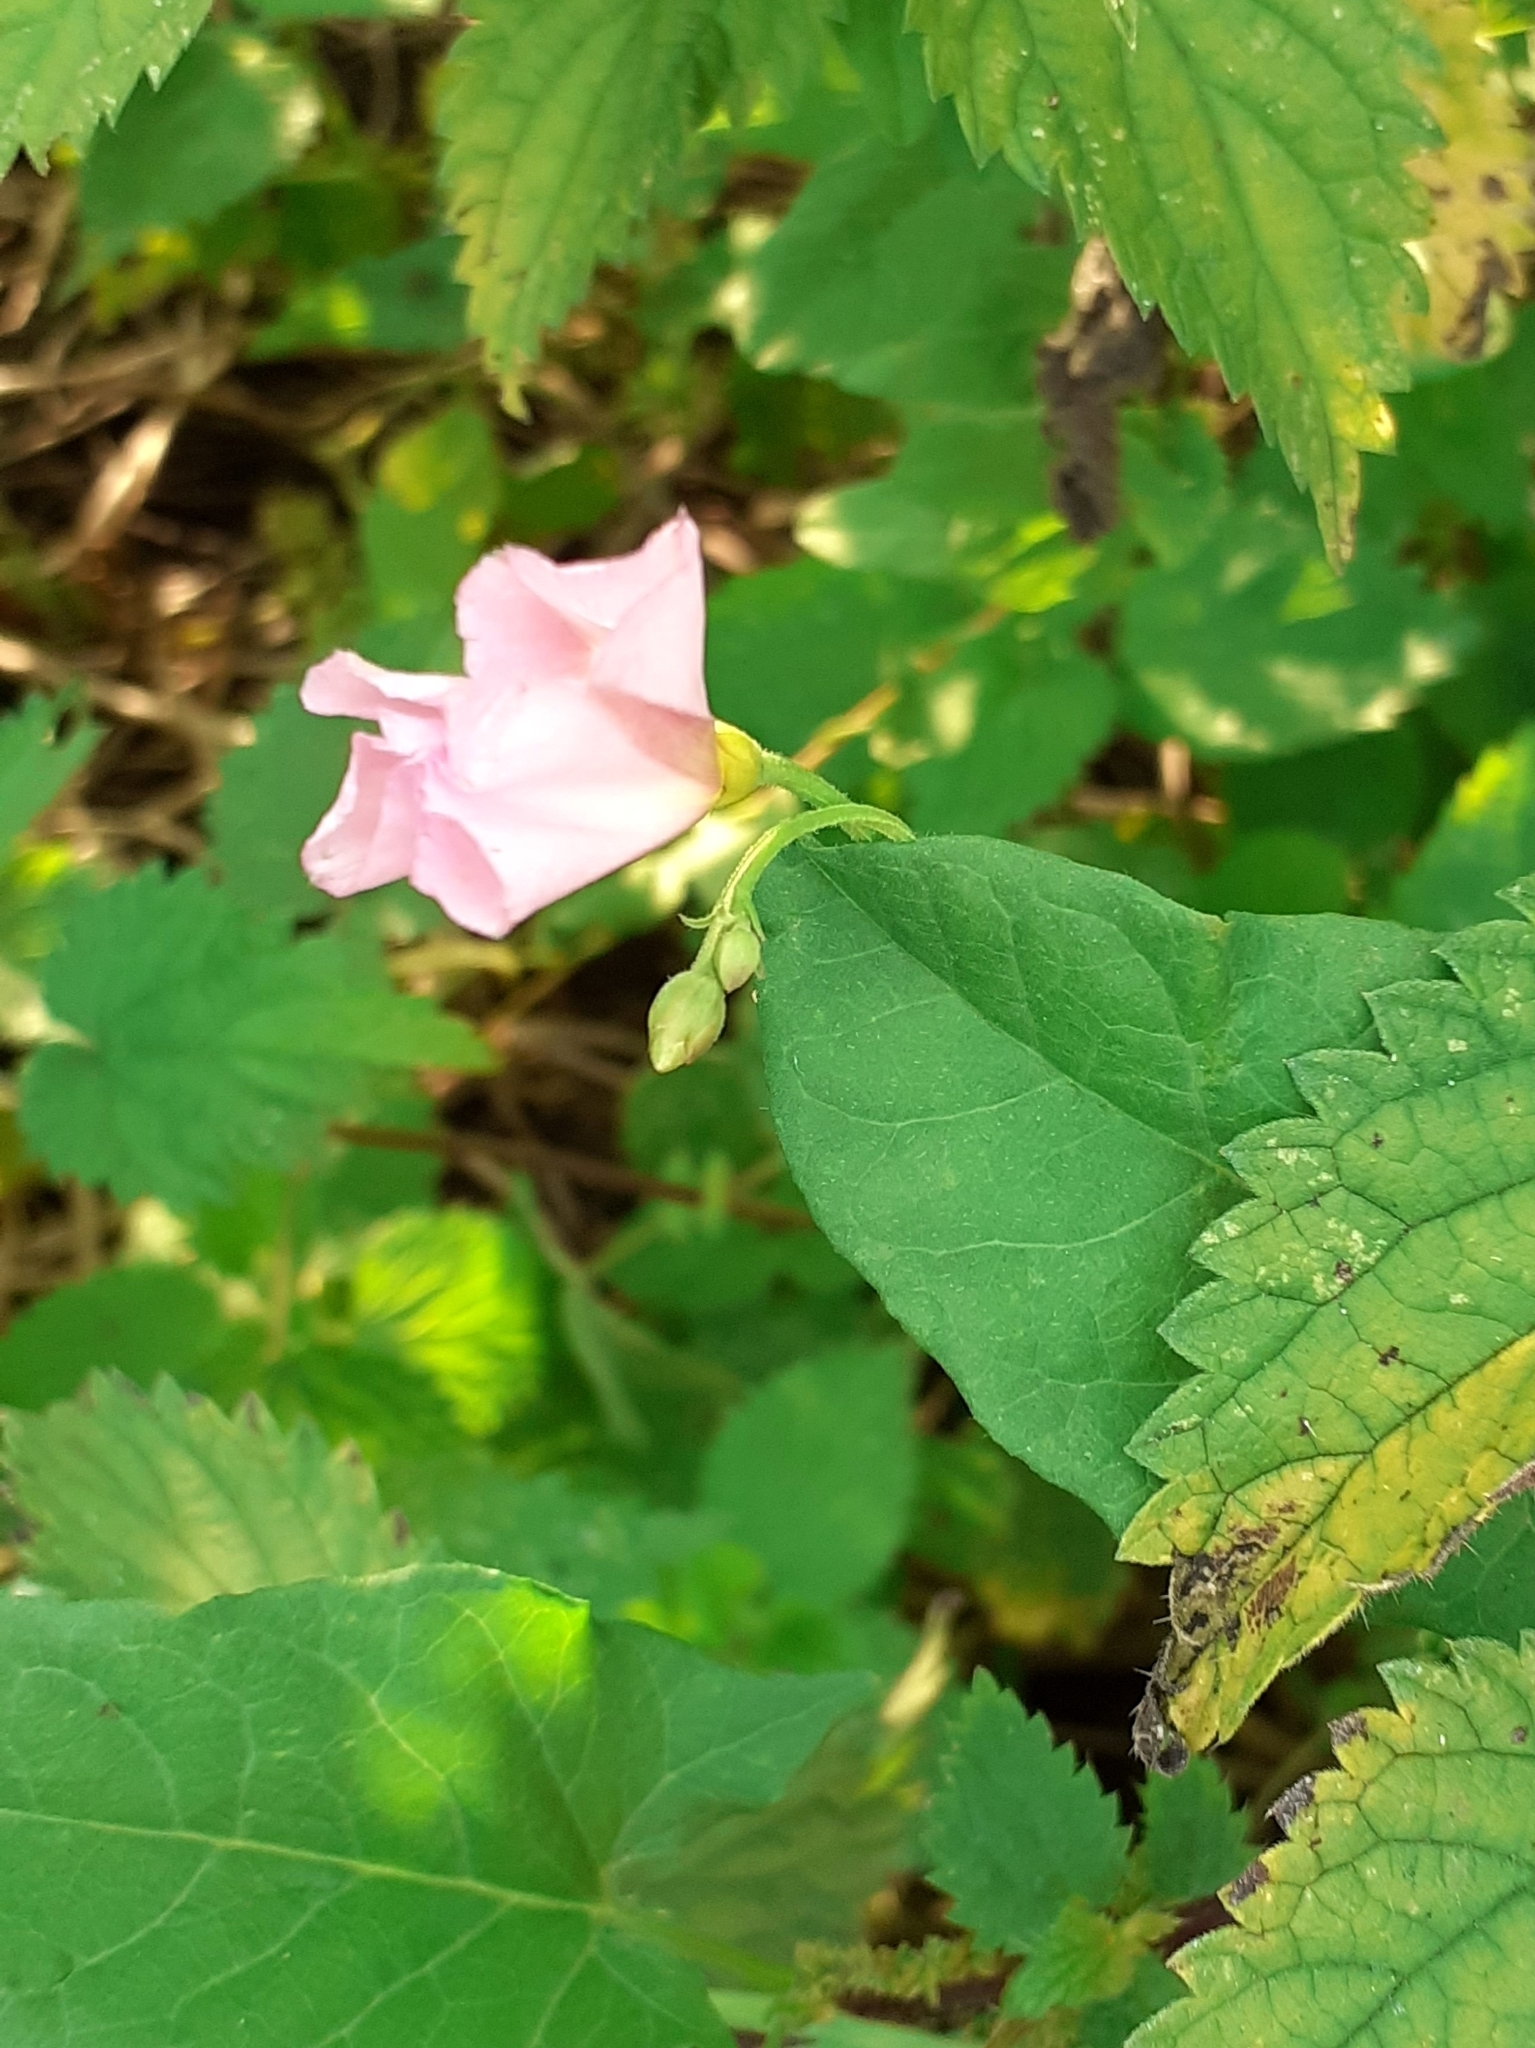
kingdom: Plantae
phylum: Tracheophyta
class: Magnoliopsida
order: Solanales
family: Convolvulaceae
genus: Convolvulus
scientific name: Convolvulus arvensis
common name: Field bindweed
